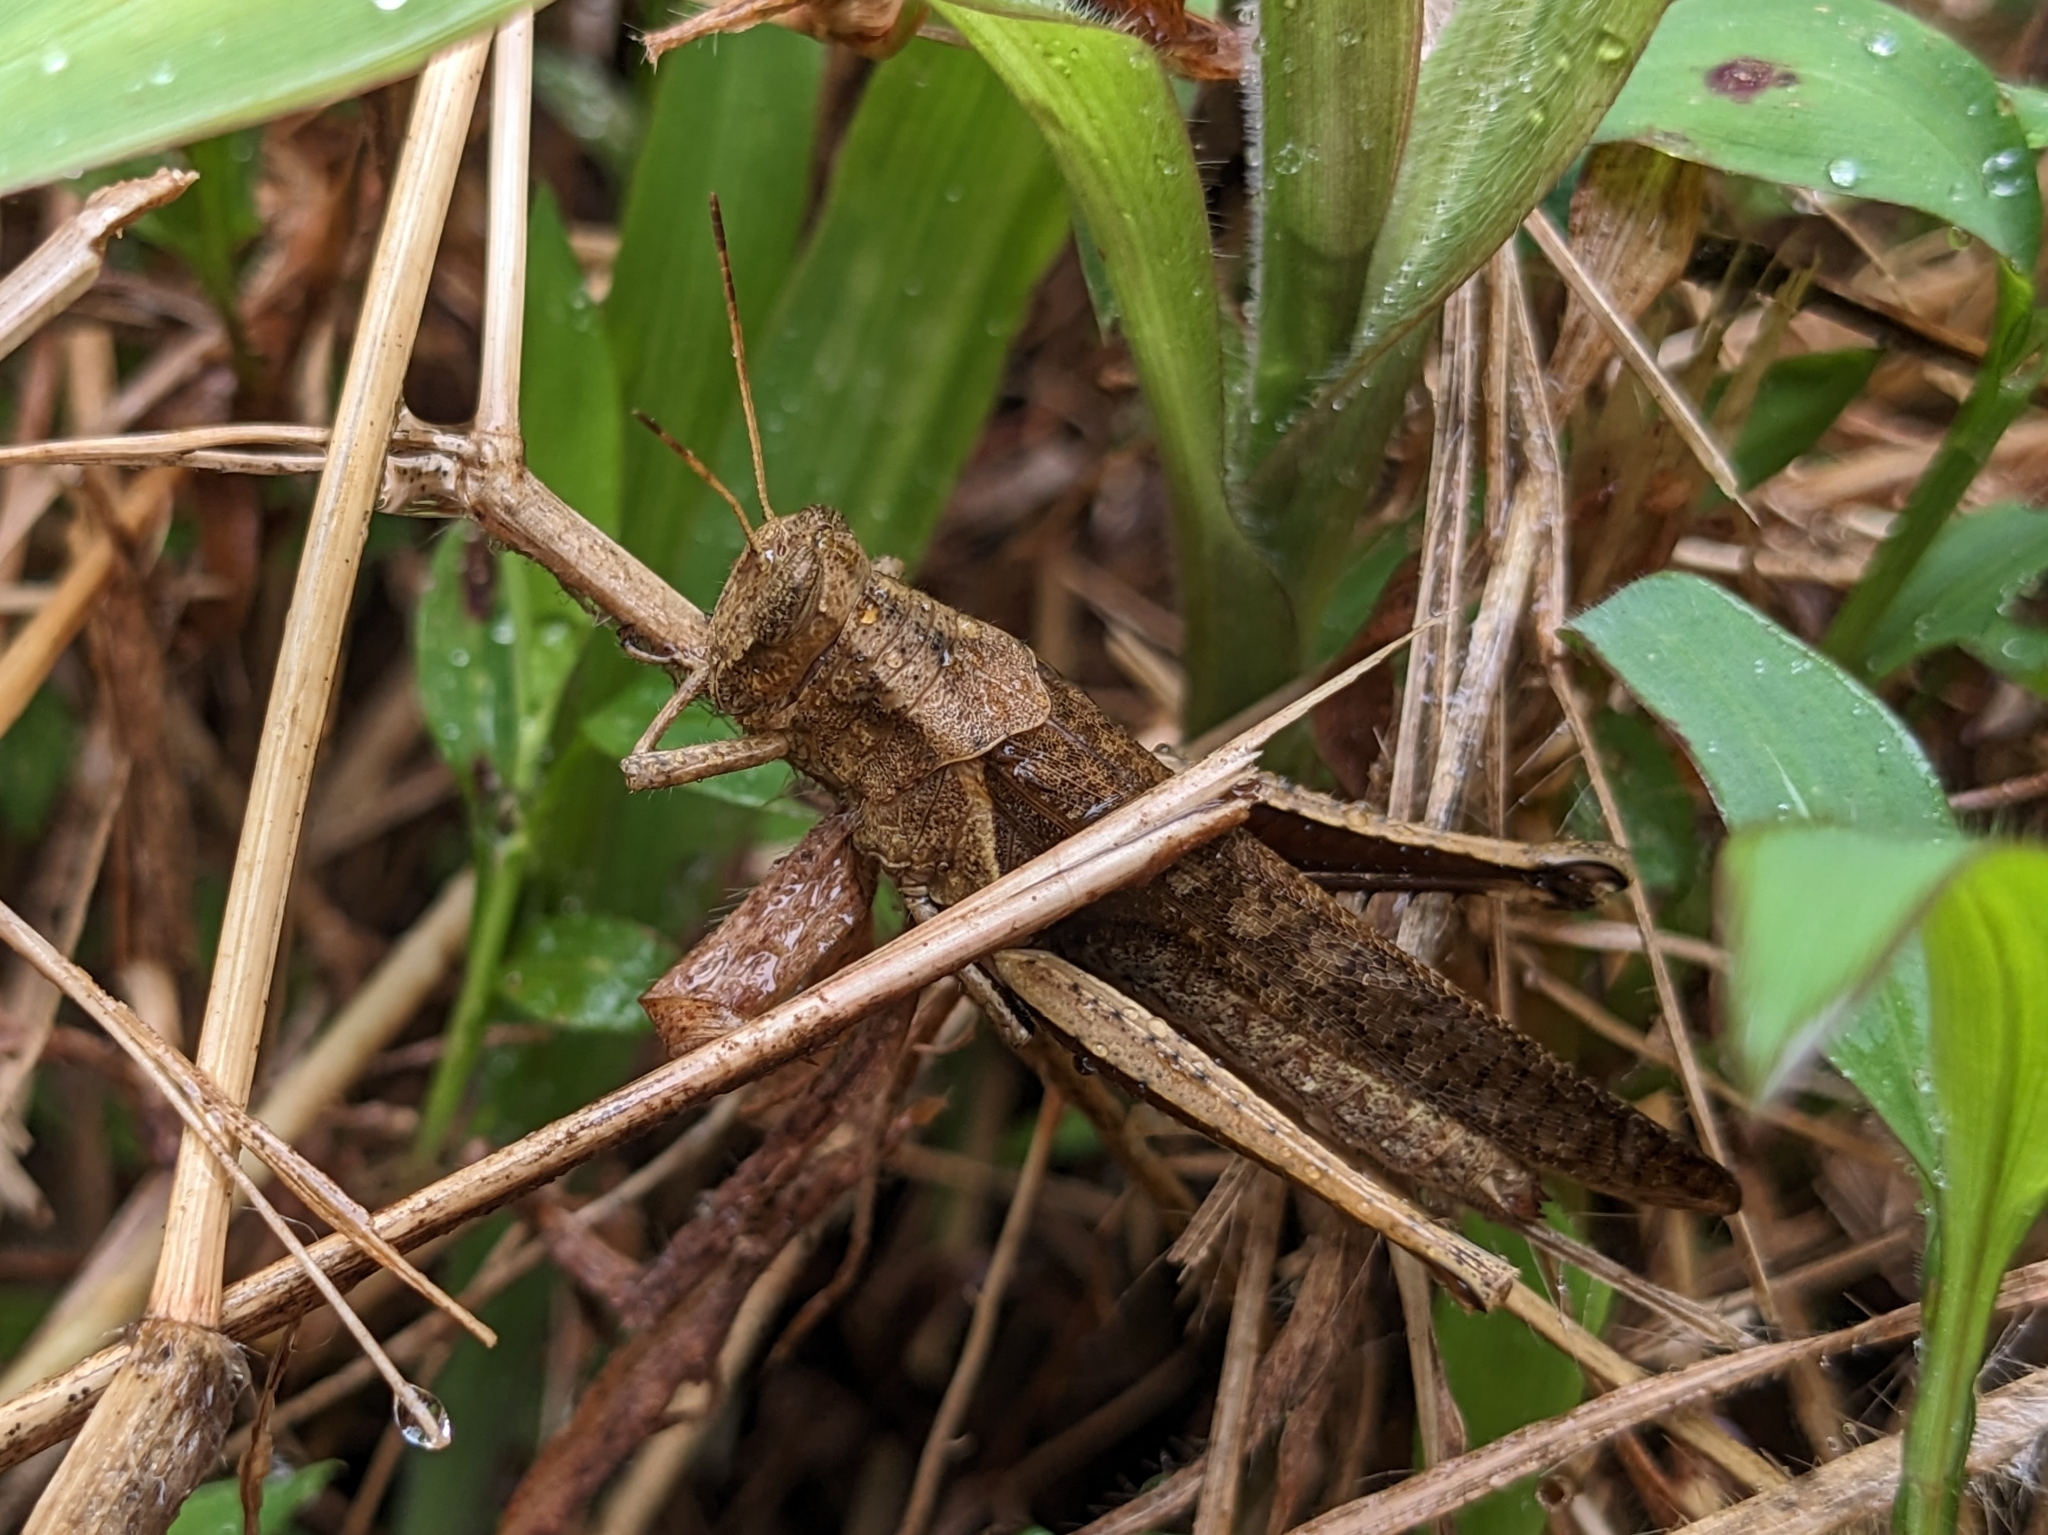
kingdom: Animalia
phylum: Arthropoda
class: Insecta
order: Orthoptera
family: Acrididae
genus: Abracris
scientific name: Abracris flavolineata
